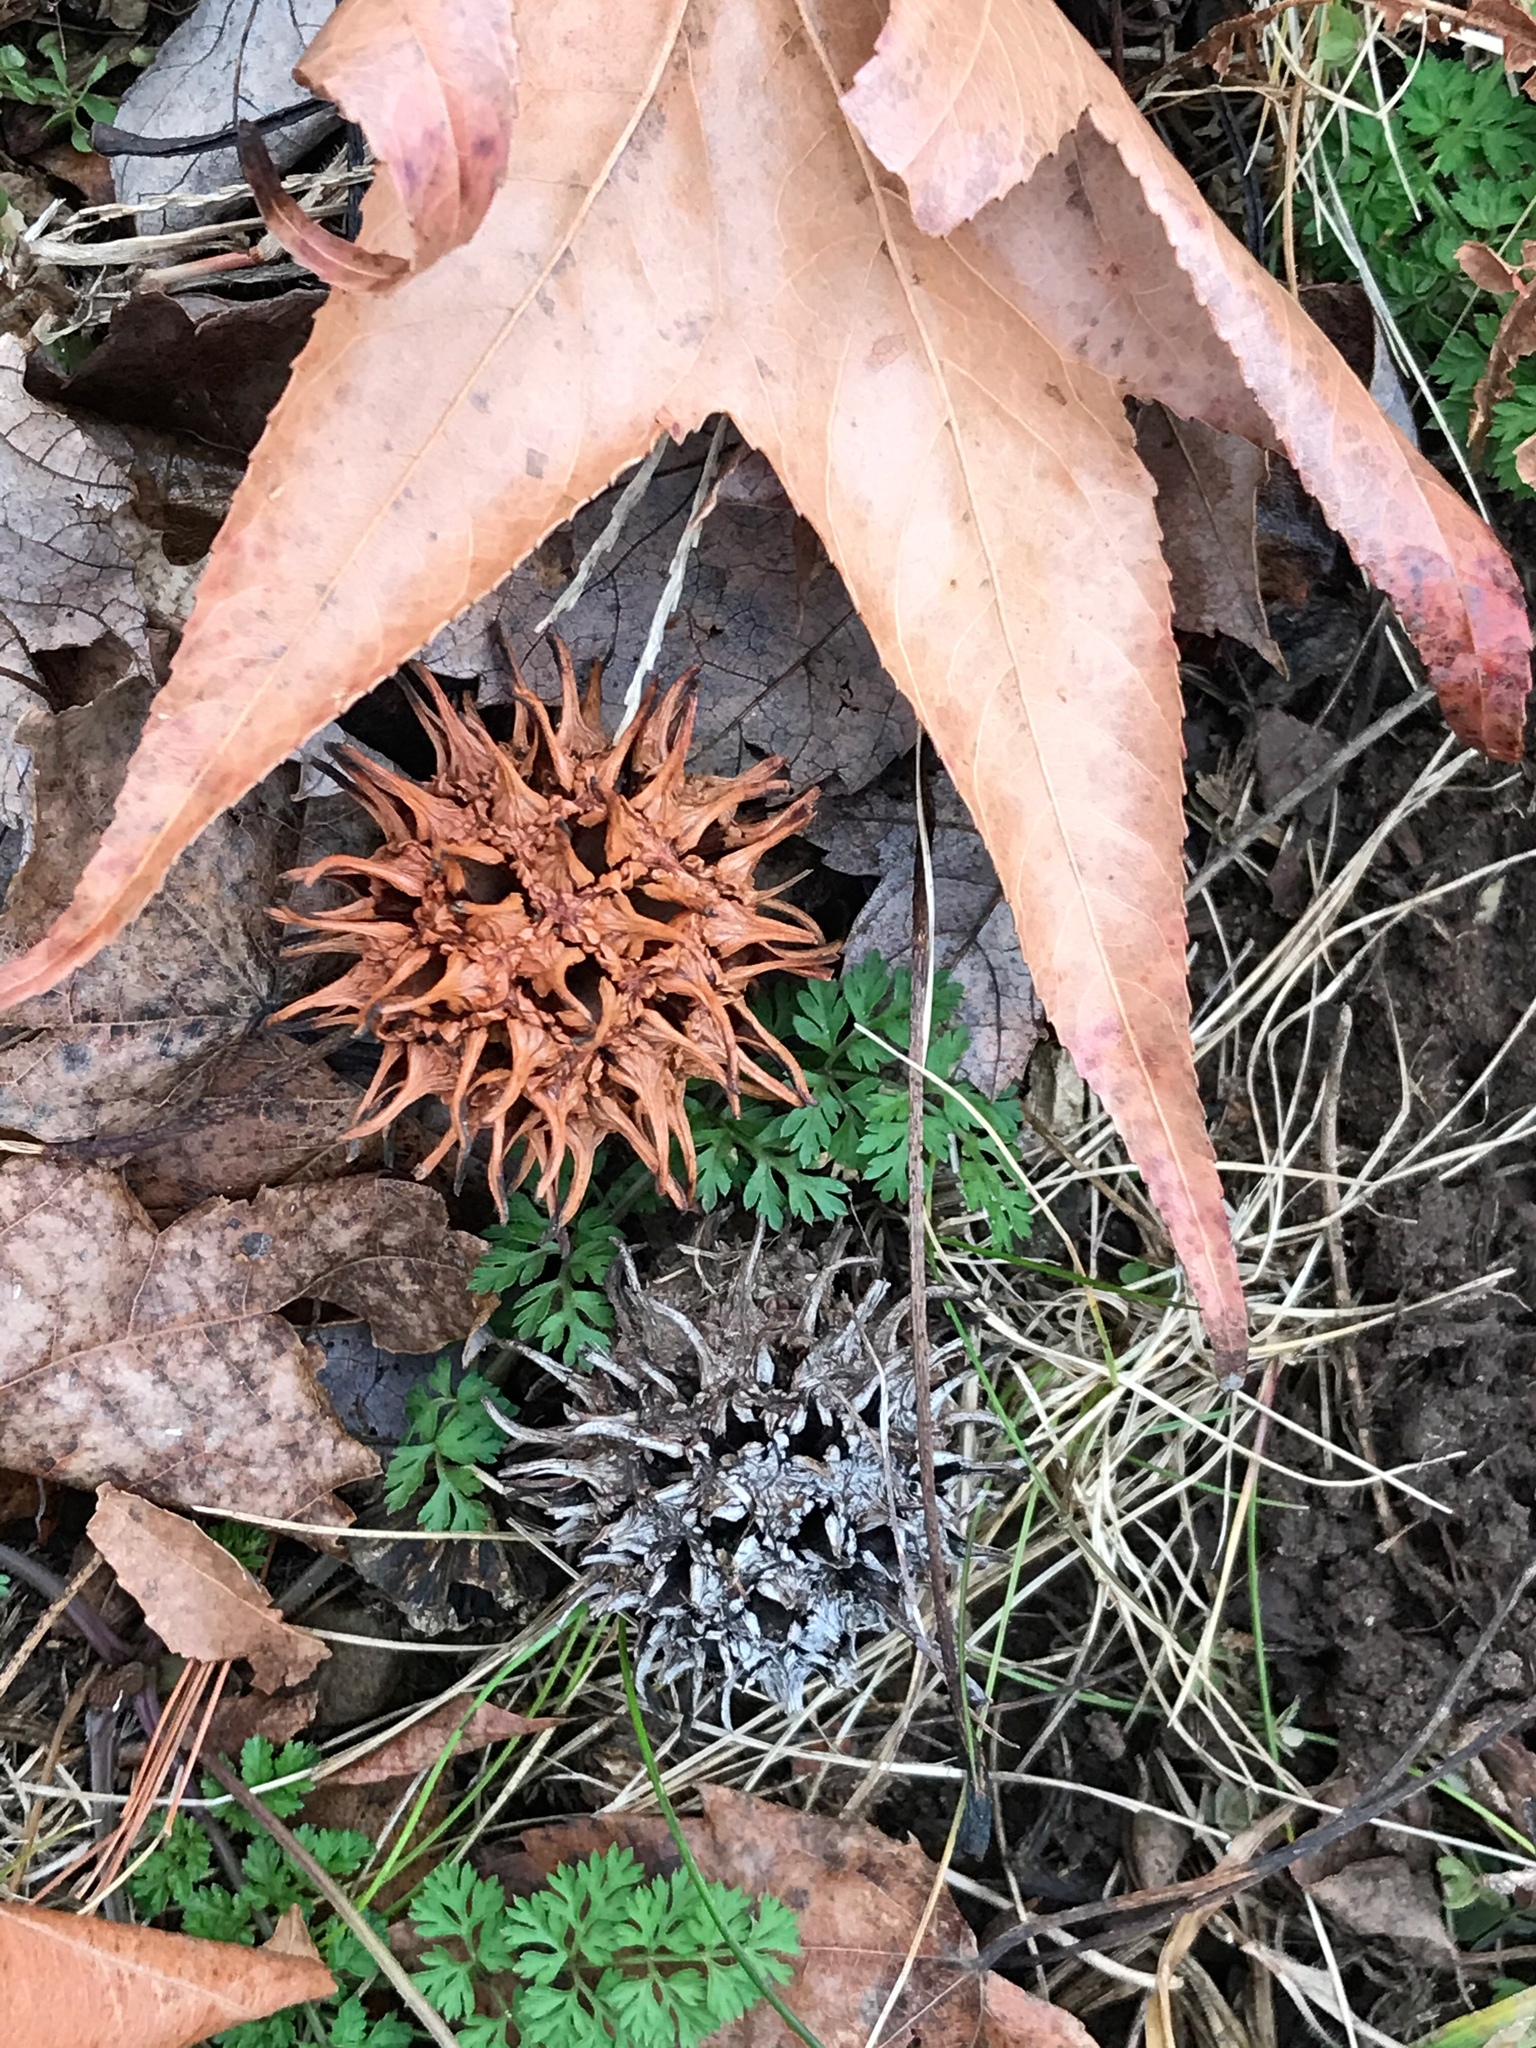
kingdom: Plantae
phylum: Tracheophyta
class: Magnoliopsida
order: Saxifragales
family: Altingiaceae
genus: Liquidambar
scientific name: Liquidambar styraciflua
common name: Sweet gum
